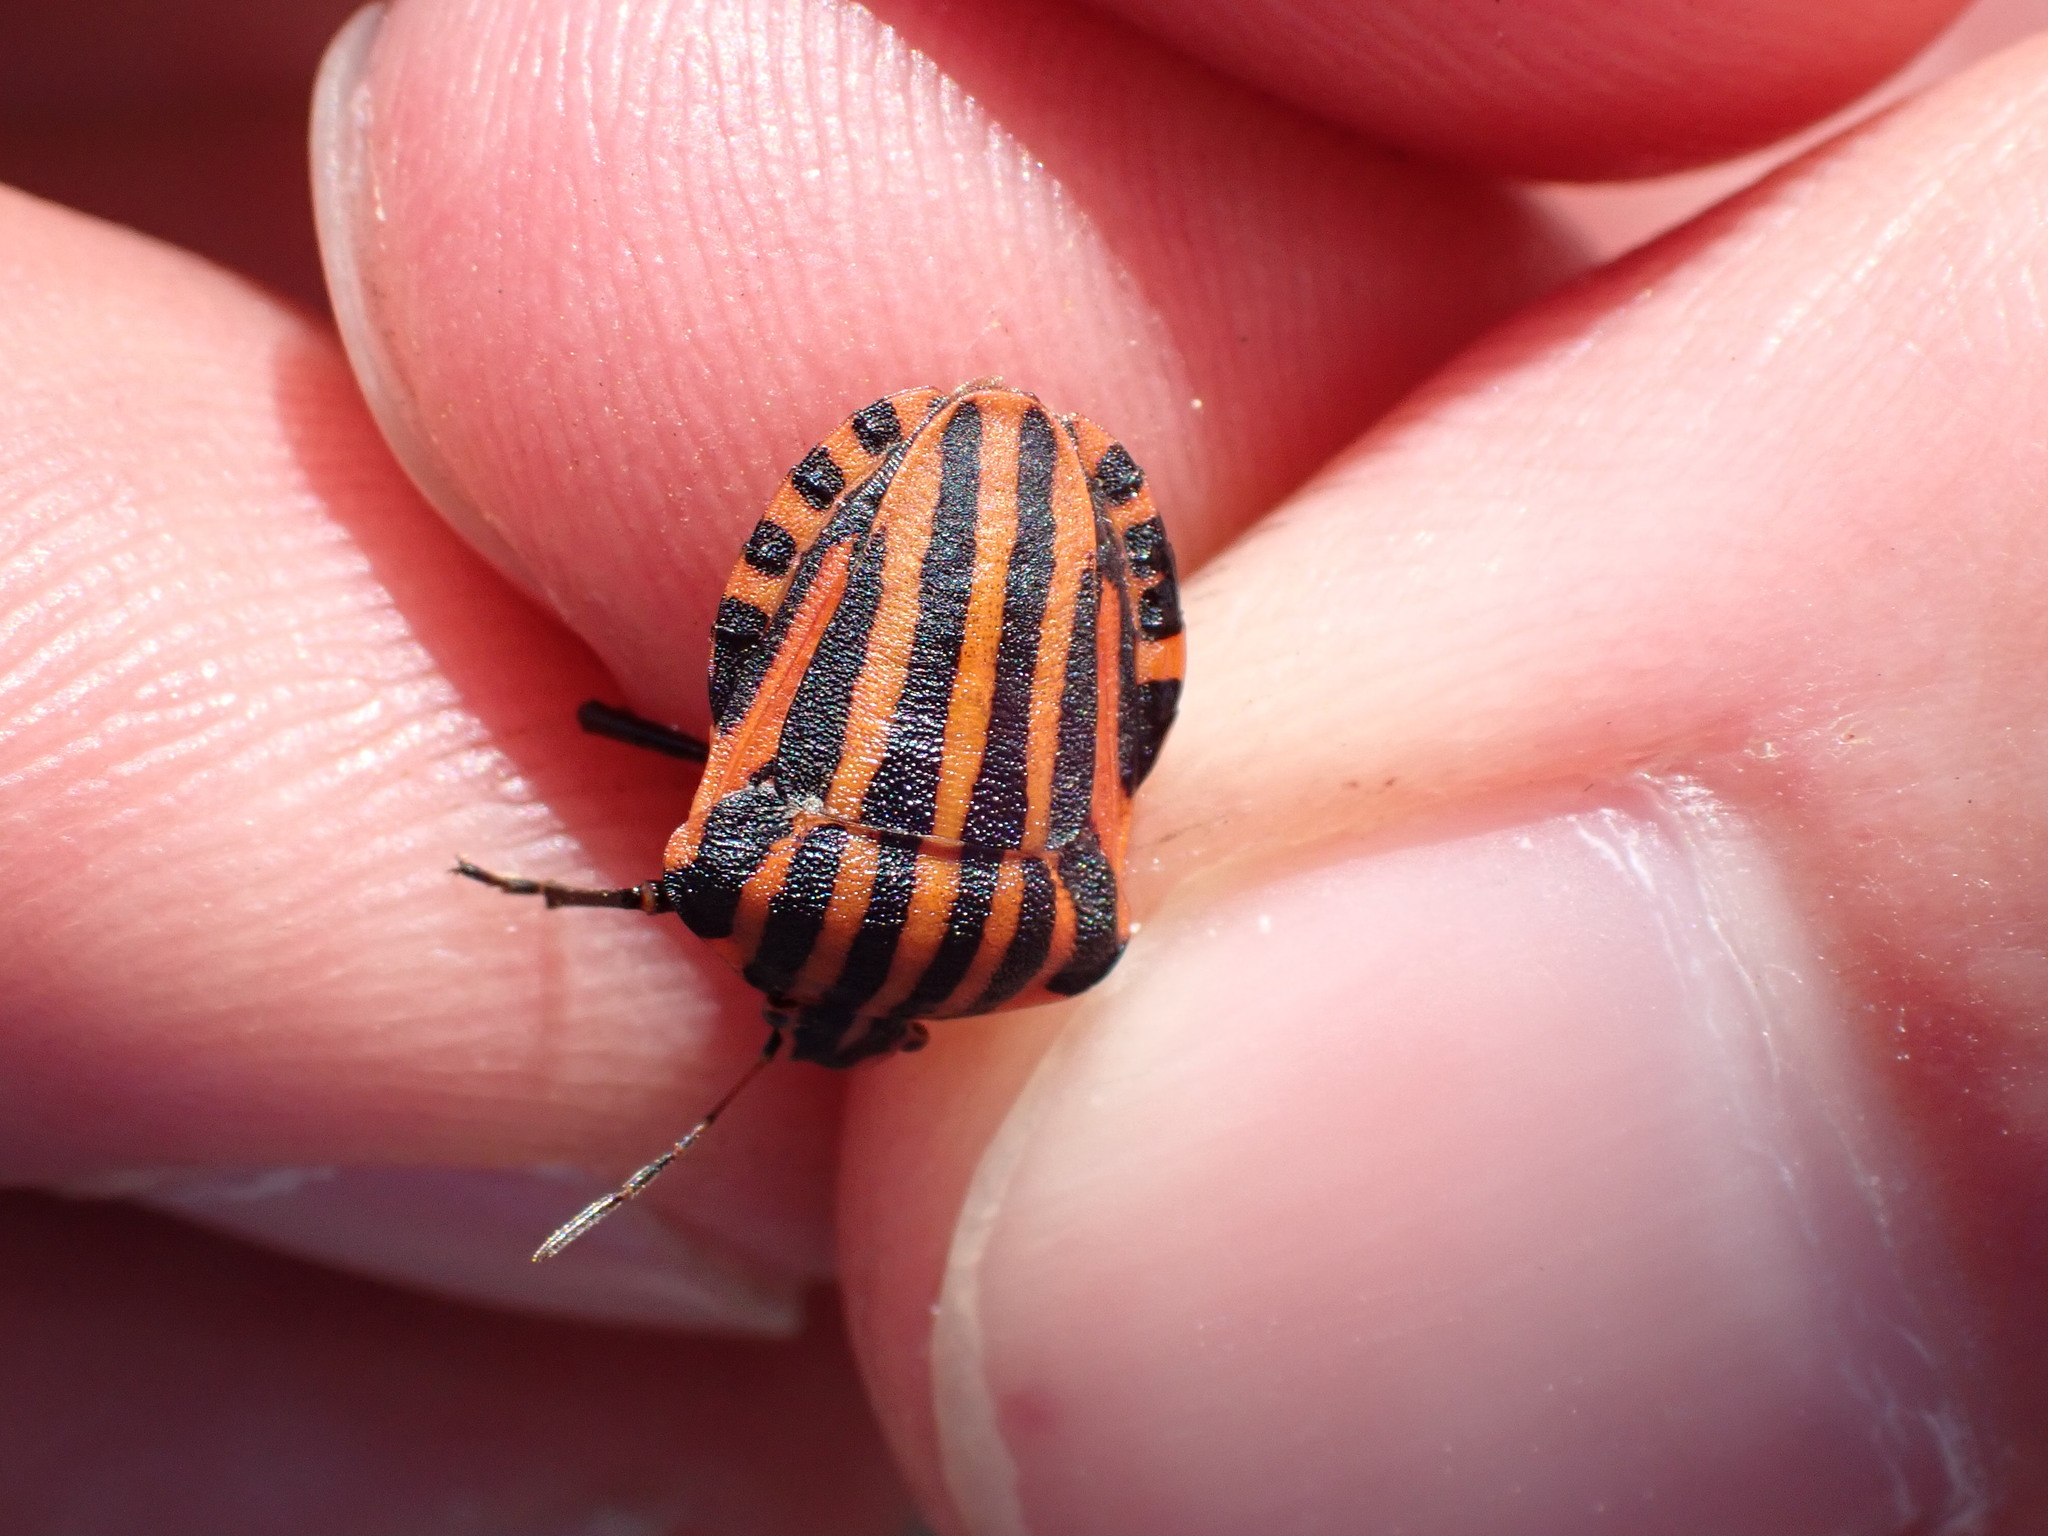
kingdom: Animalia
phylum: Arthropoda
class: Insecta
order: Hemiptera
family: Pentatomidae
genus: Graphosoma
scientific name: Graphosoma italicum
